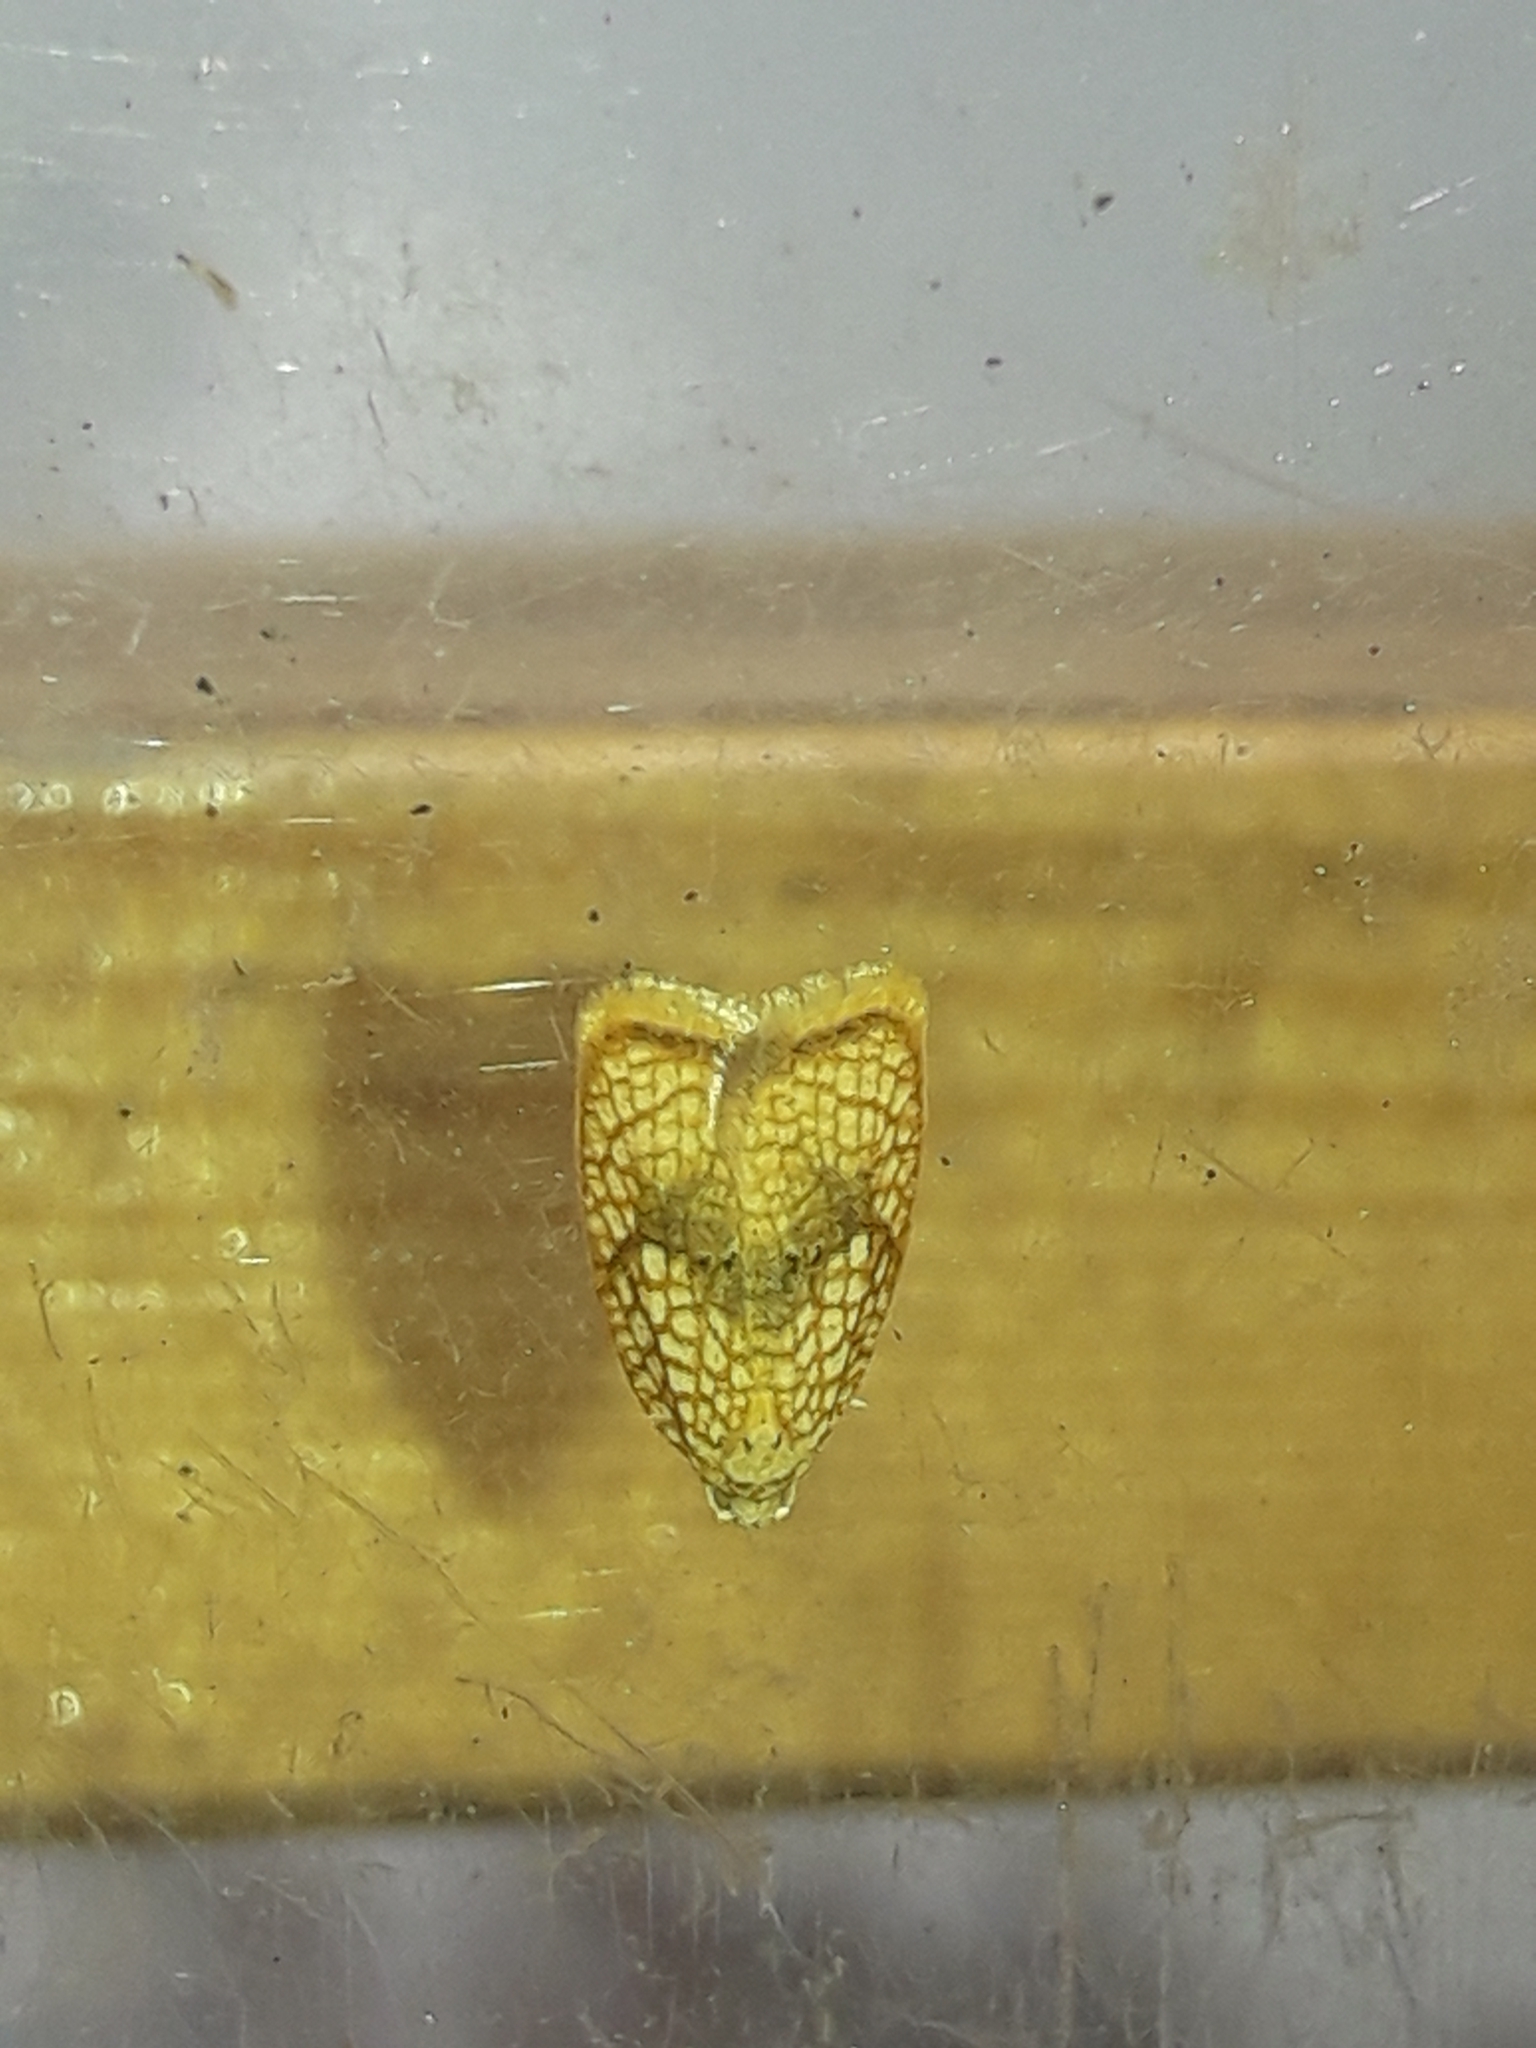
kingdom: Animalia
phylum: Arthropoda
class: Insecta
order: Lepidoptera
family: Tortricidae
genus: Acleris
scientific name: Acleris forsskaleana
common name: Maple button
